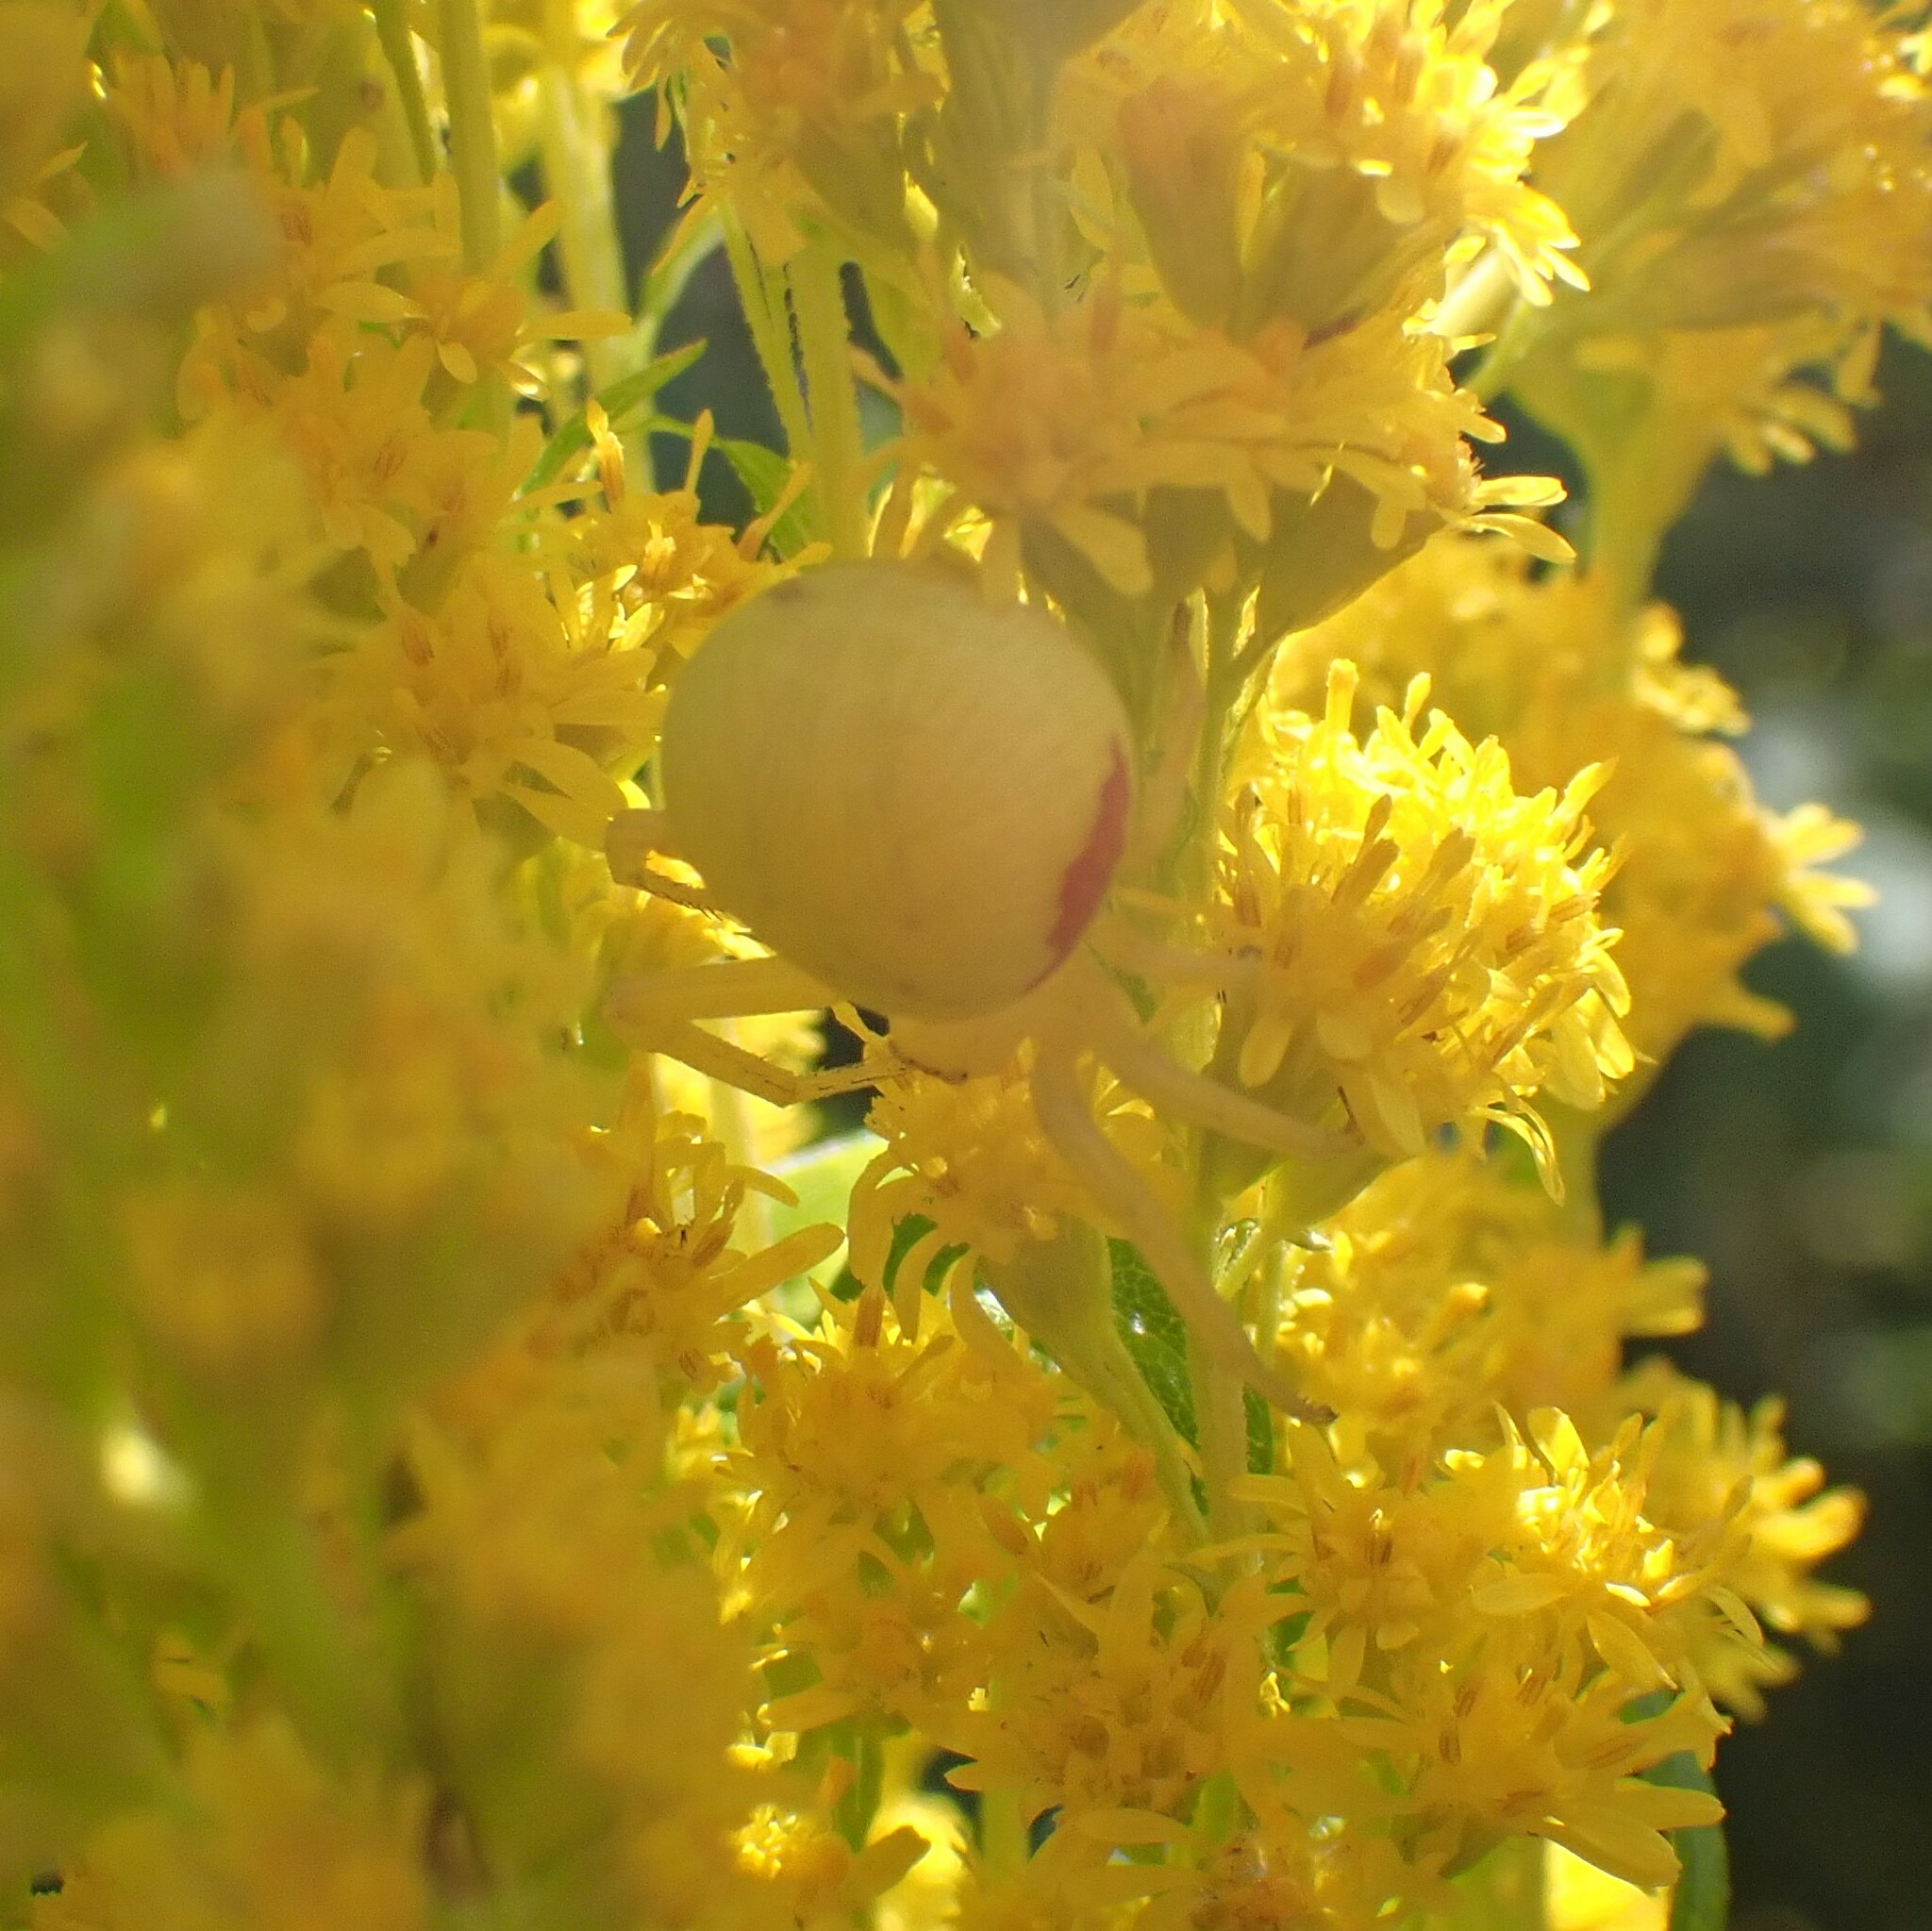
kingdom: Animalia
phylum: Arthropoda
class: Arachnida
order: Araneae
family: Thomisidae
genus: Misumena
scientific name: Misumena vatia
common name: Goldenrod crab spider
